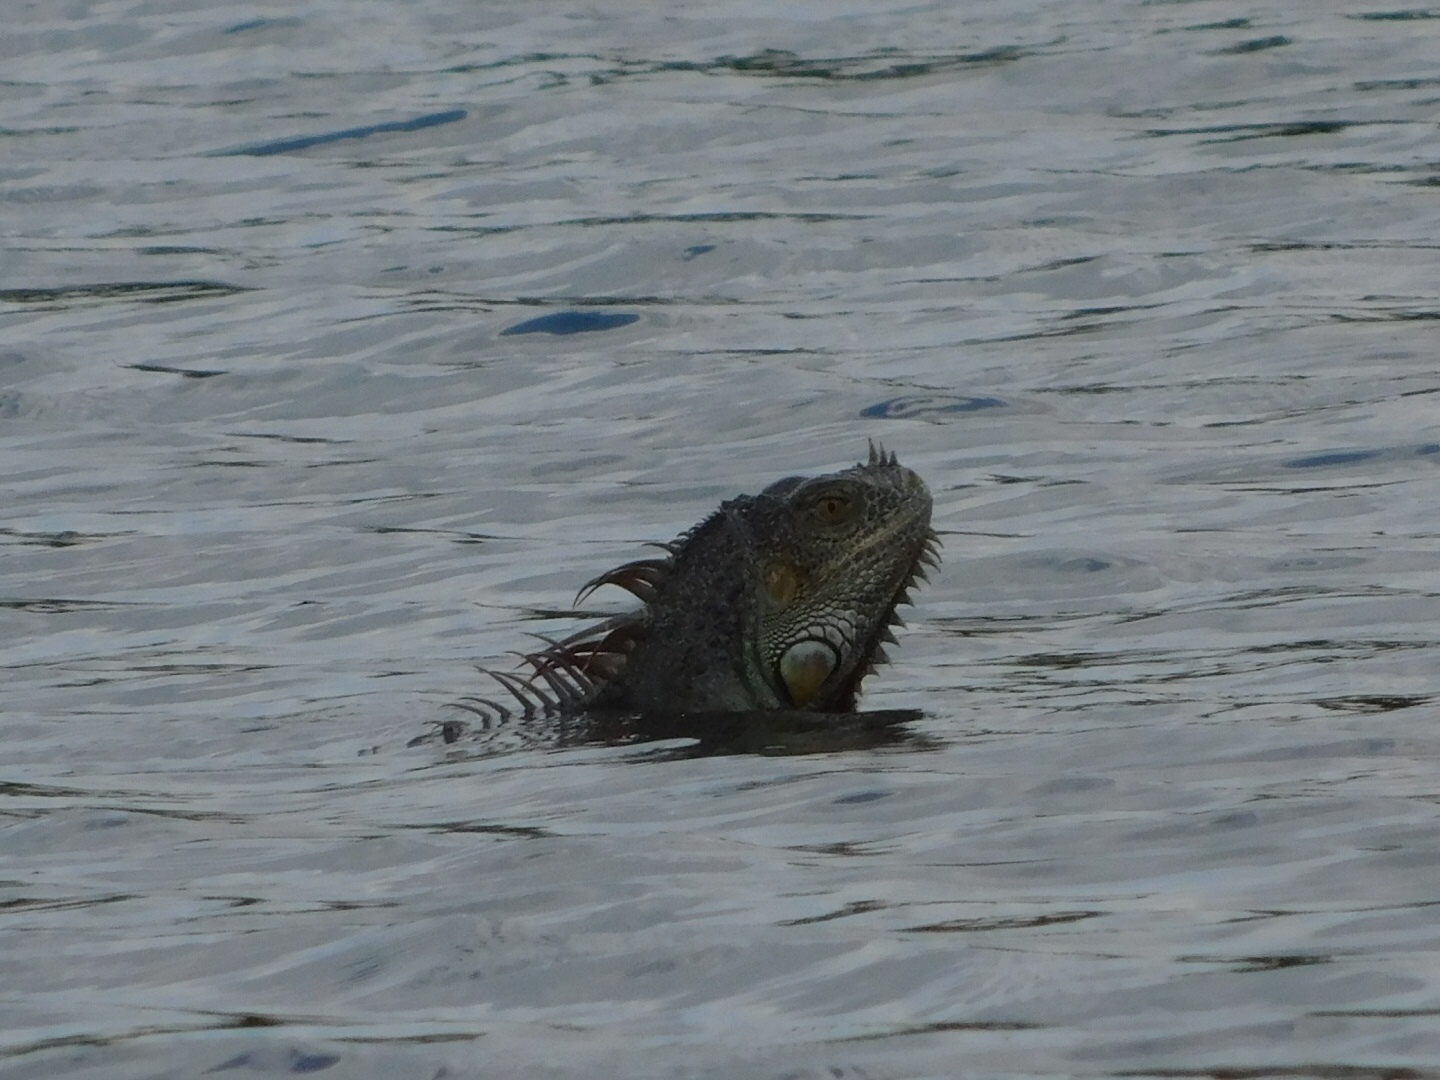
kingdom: Animalia
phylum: Chordata
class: Squamata
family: Iguanidae
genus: Iguana
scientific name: Iguana iguana
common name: Green iguana
